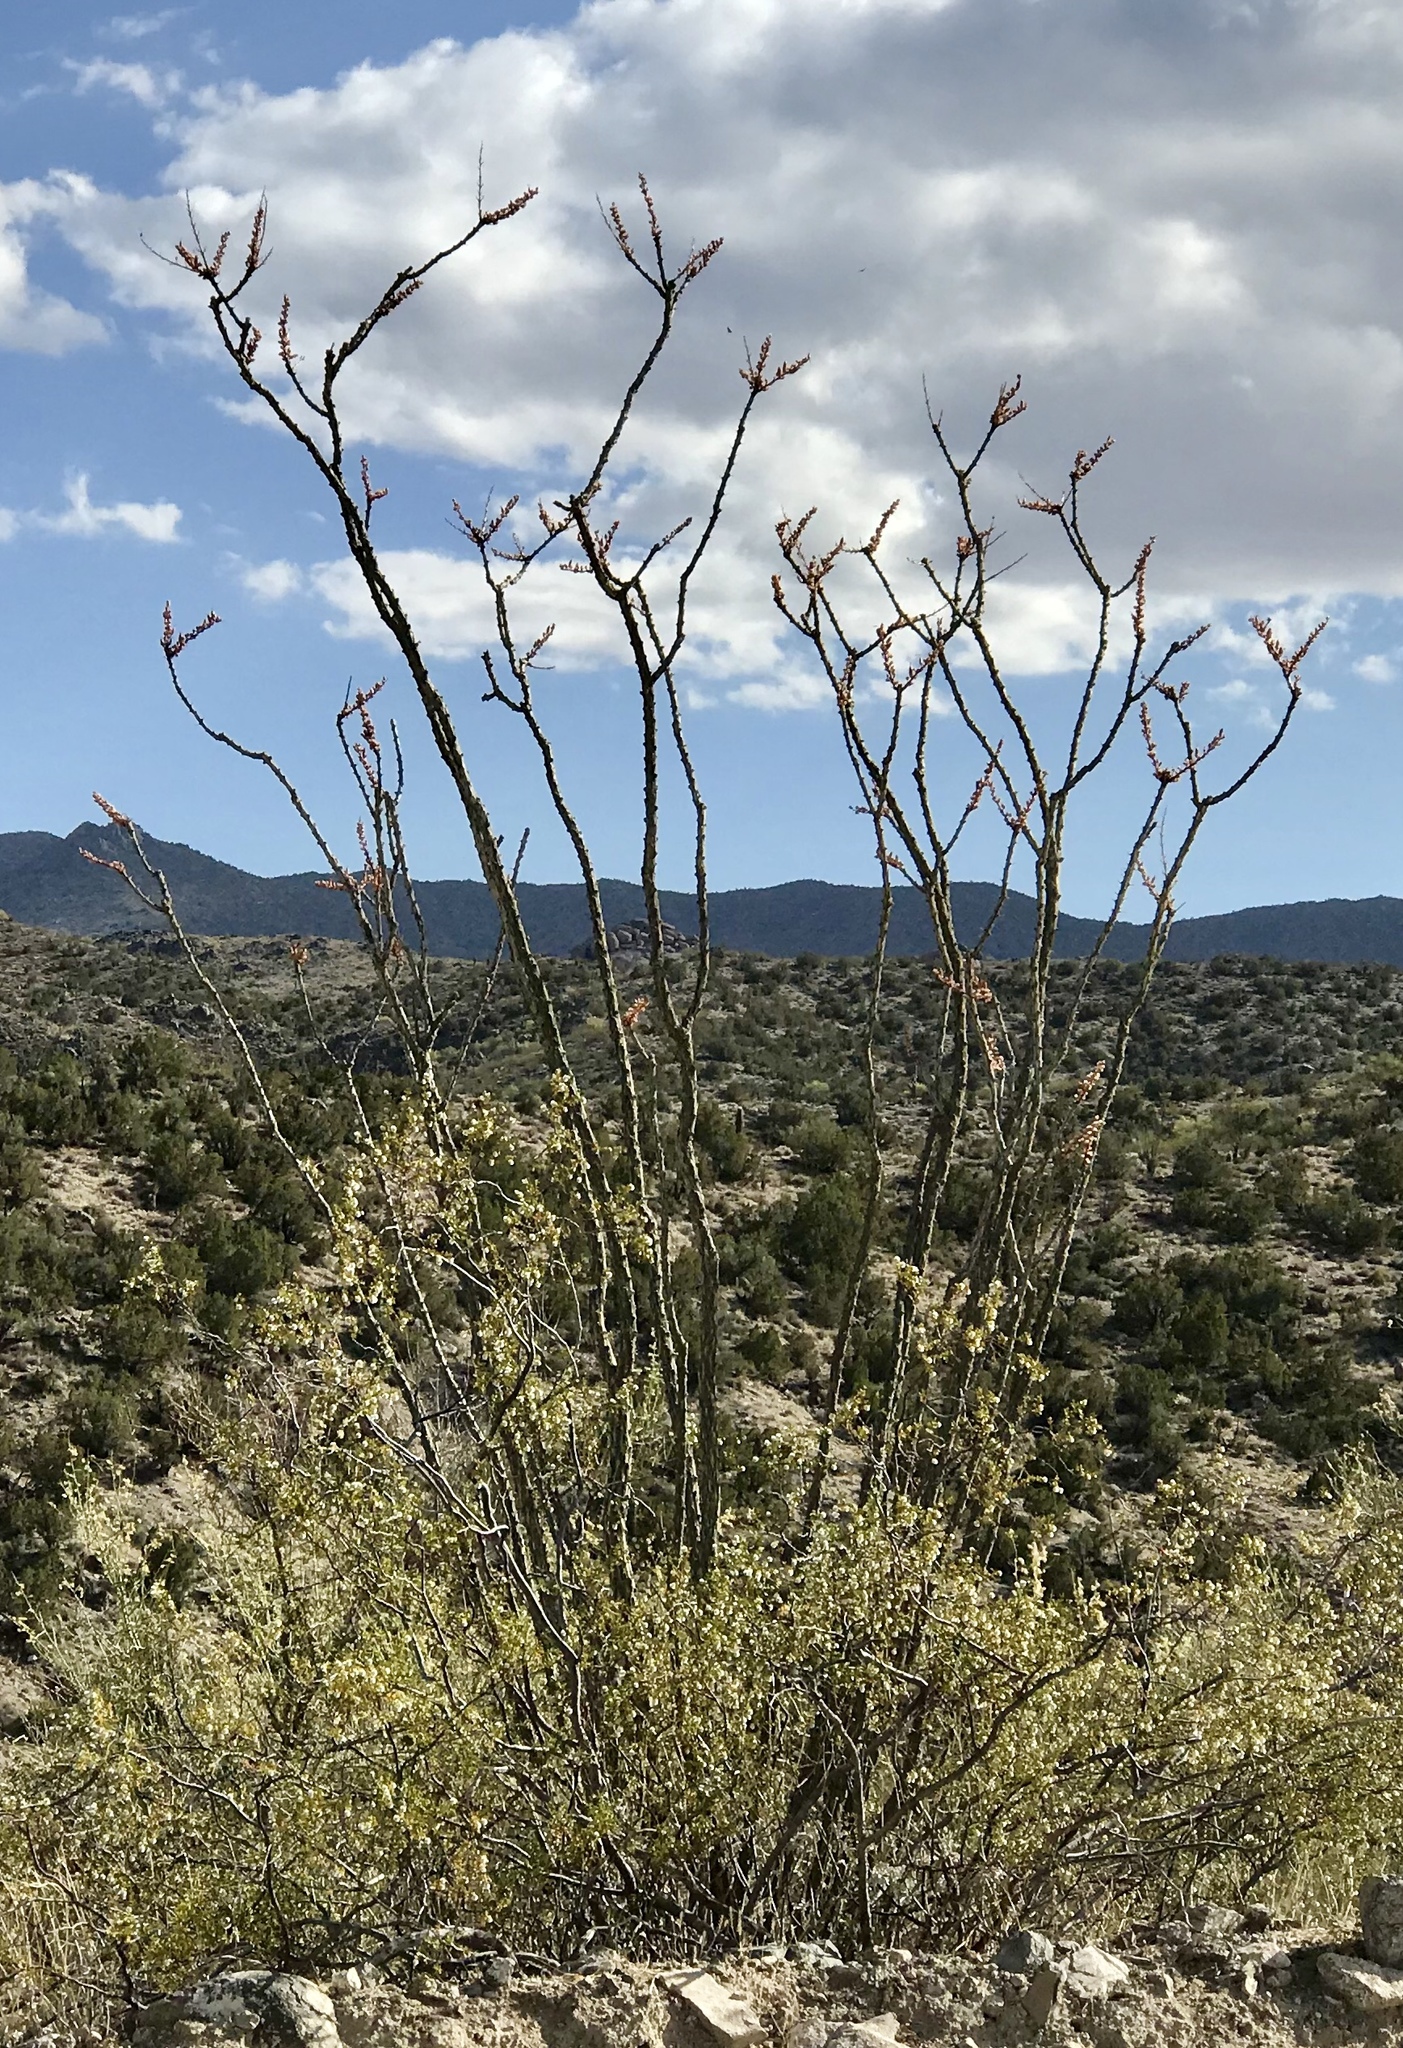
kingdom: Plantae
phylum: Tracheophyta
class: Magnoliopsida
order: Ericales
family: Fouquieriaceae
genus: Fouquieria
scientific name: Fouquieria splendens
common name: Vine-cactus
